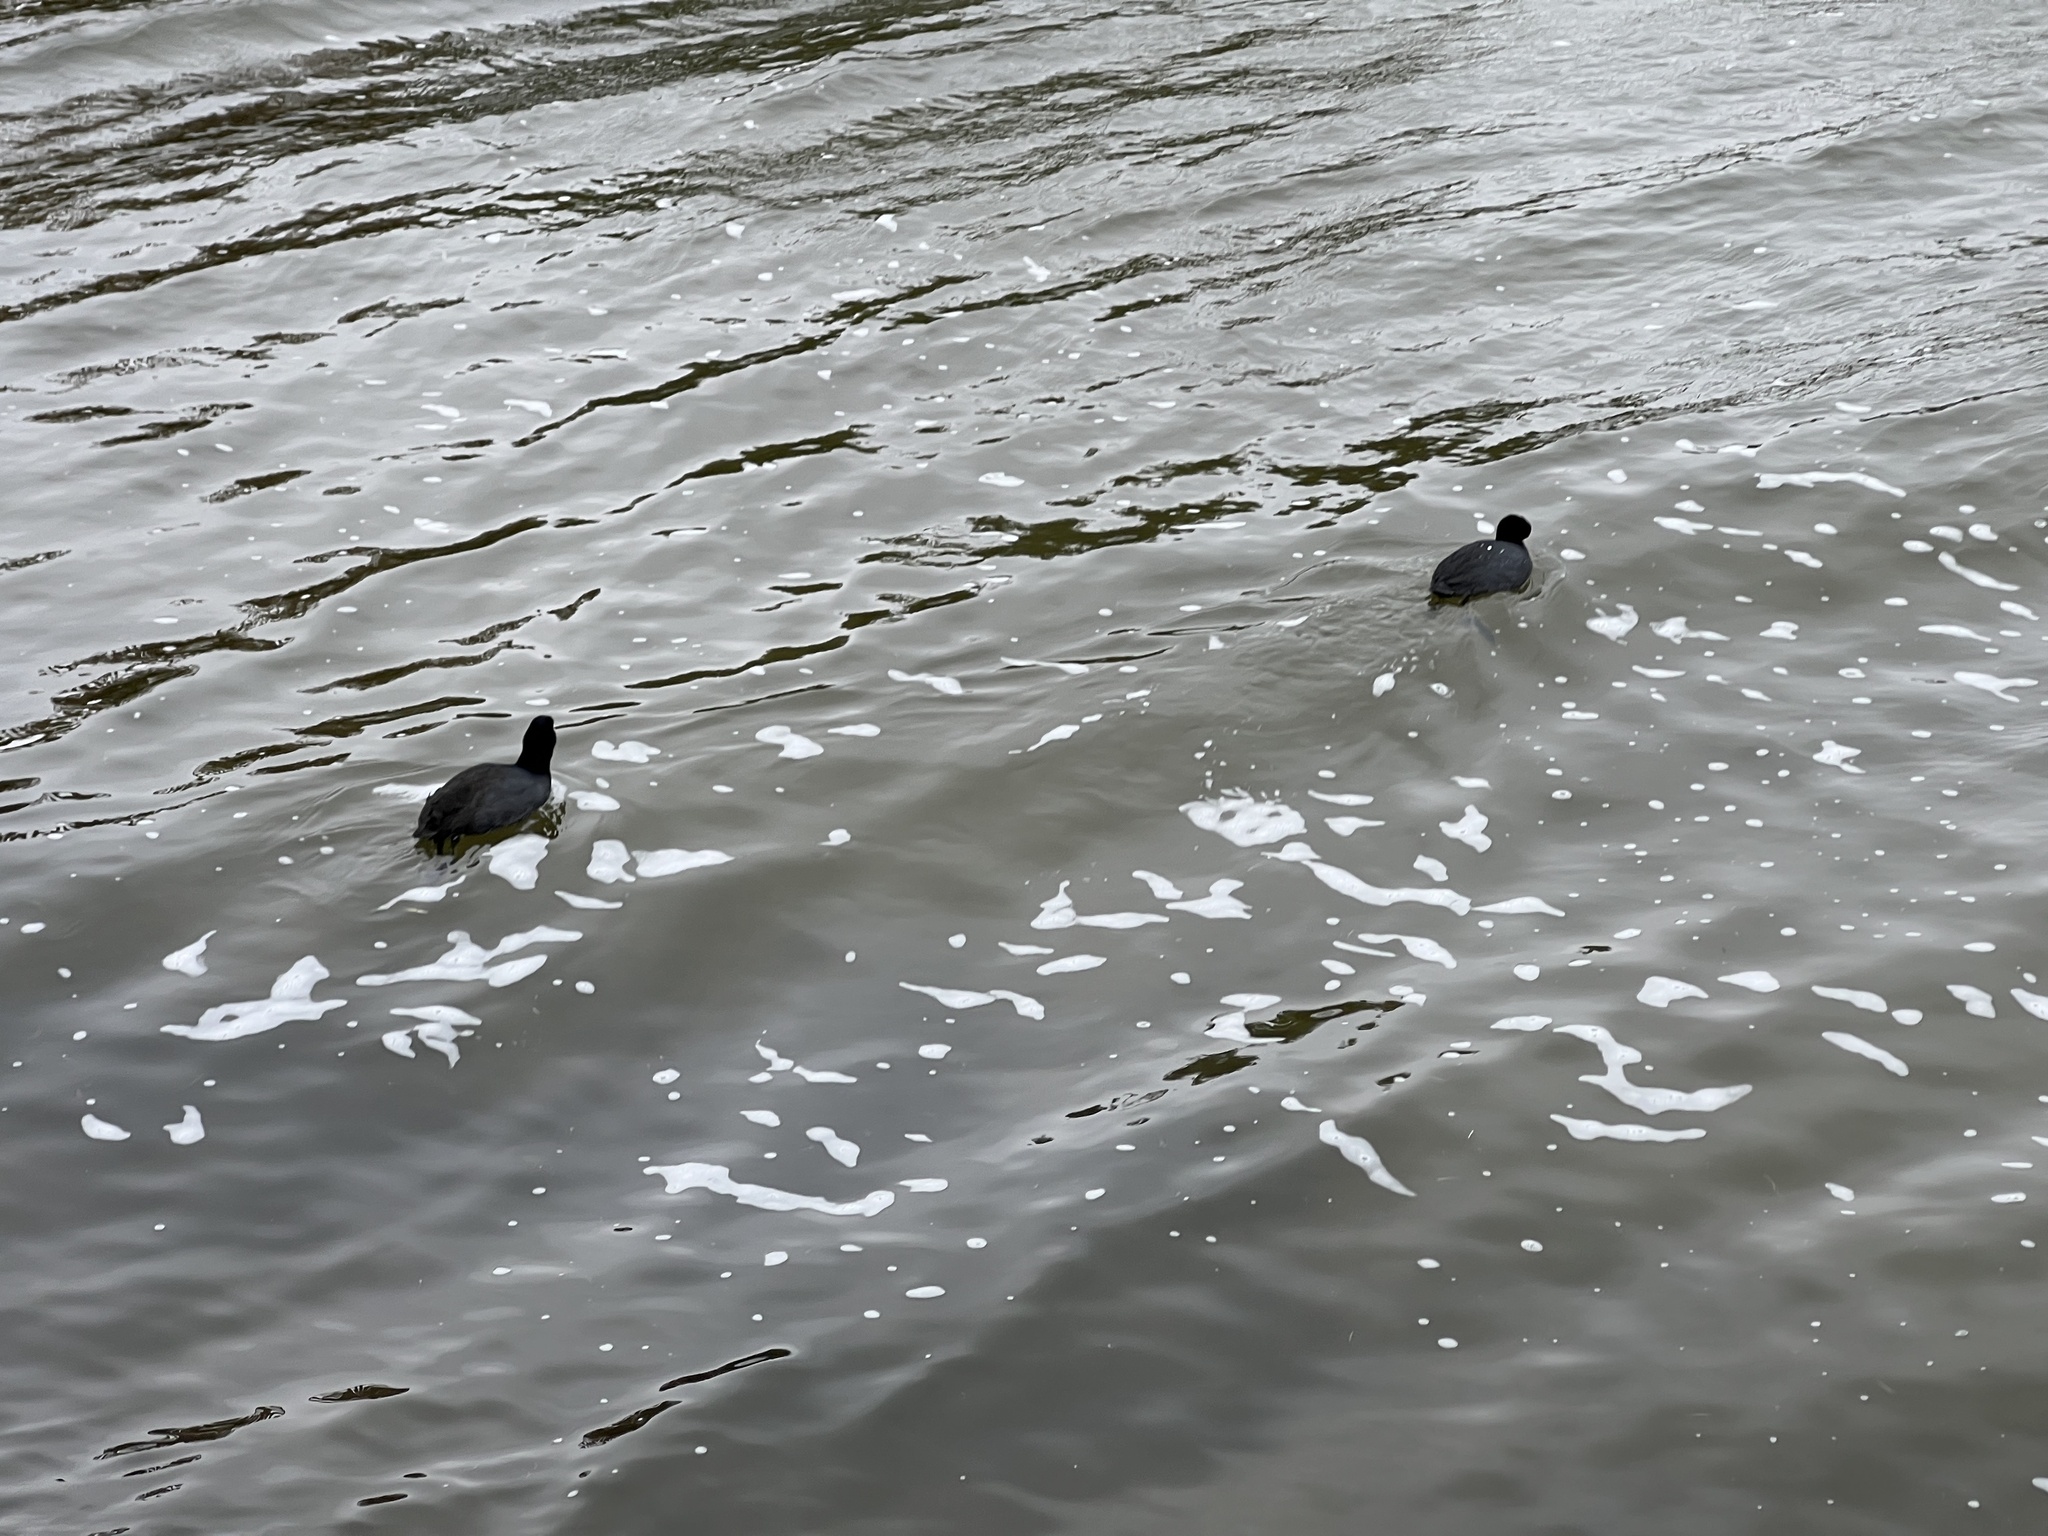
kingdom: Animalia
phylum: Chordata
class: Aves
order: Gruiformes
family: Rallidae
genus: Fulica
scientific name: Fulica americana
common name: American coot
